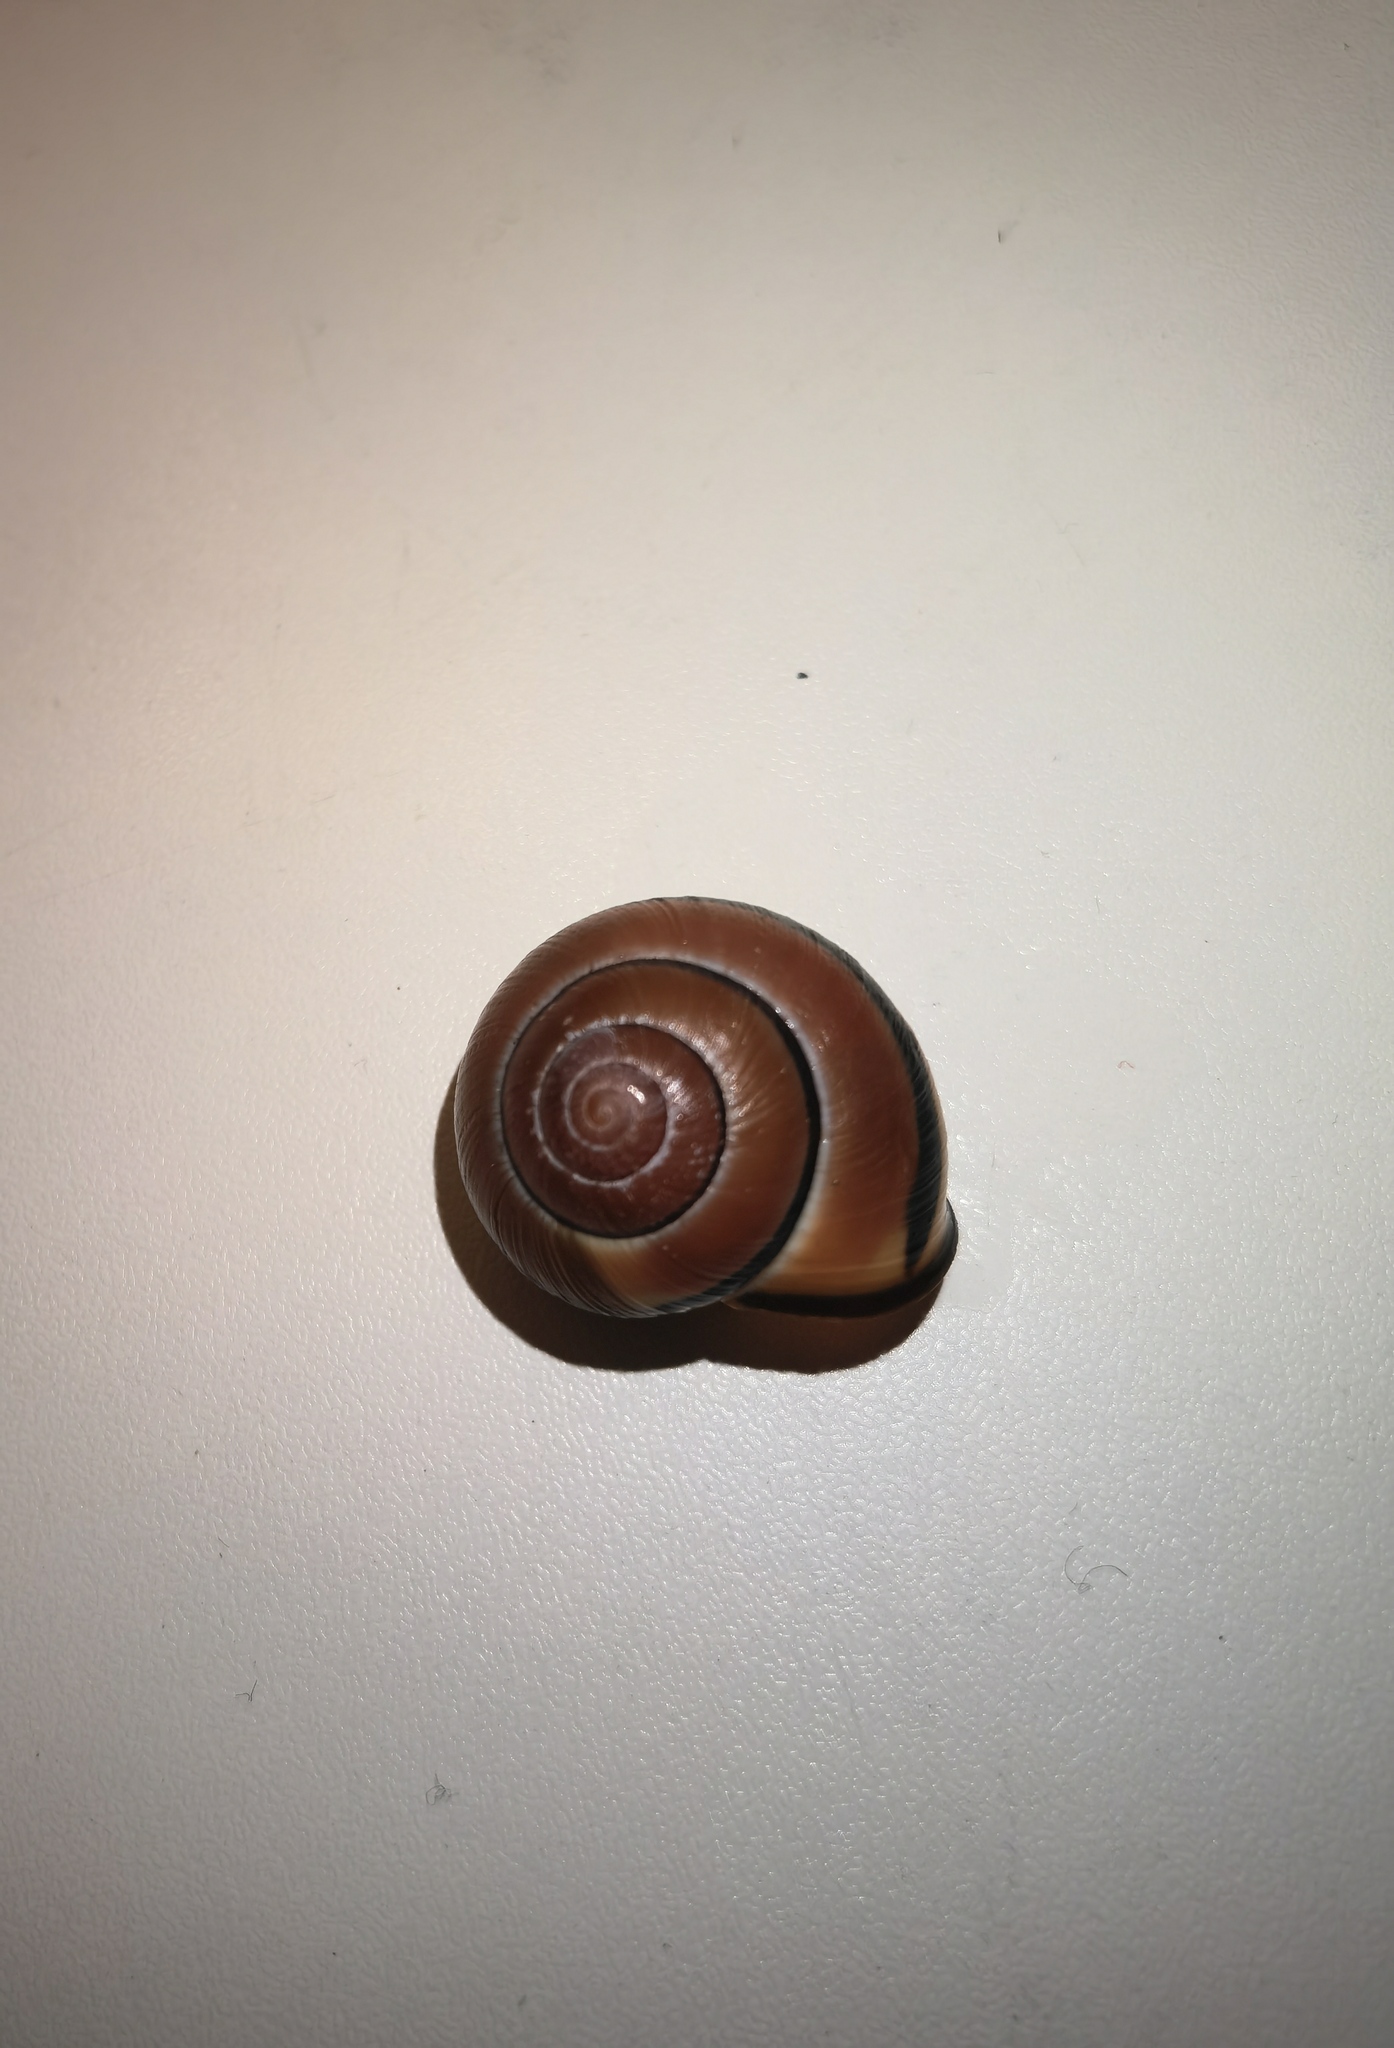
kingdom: Animalia
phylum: Mollusca
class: Gastropoda
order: Stylommatophora
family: Helicidae
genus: Cepaea
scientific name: Cepaea nemoralis
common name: Grovesnail
